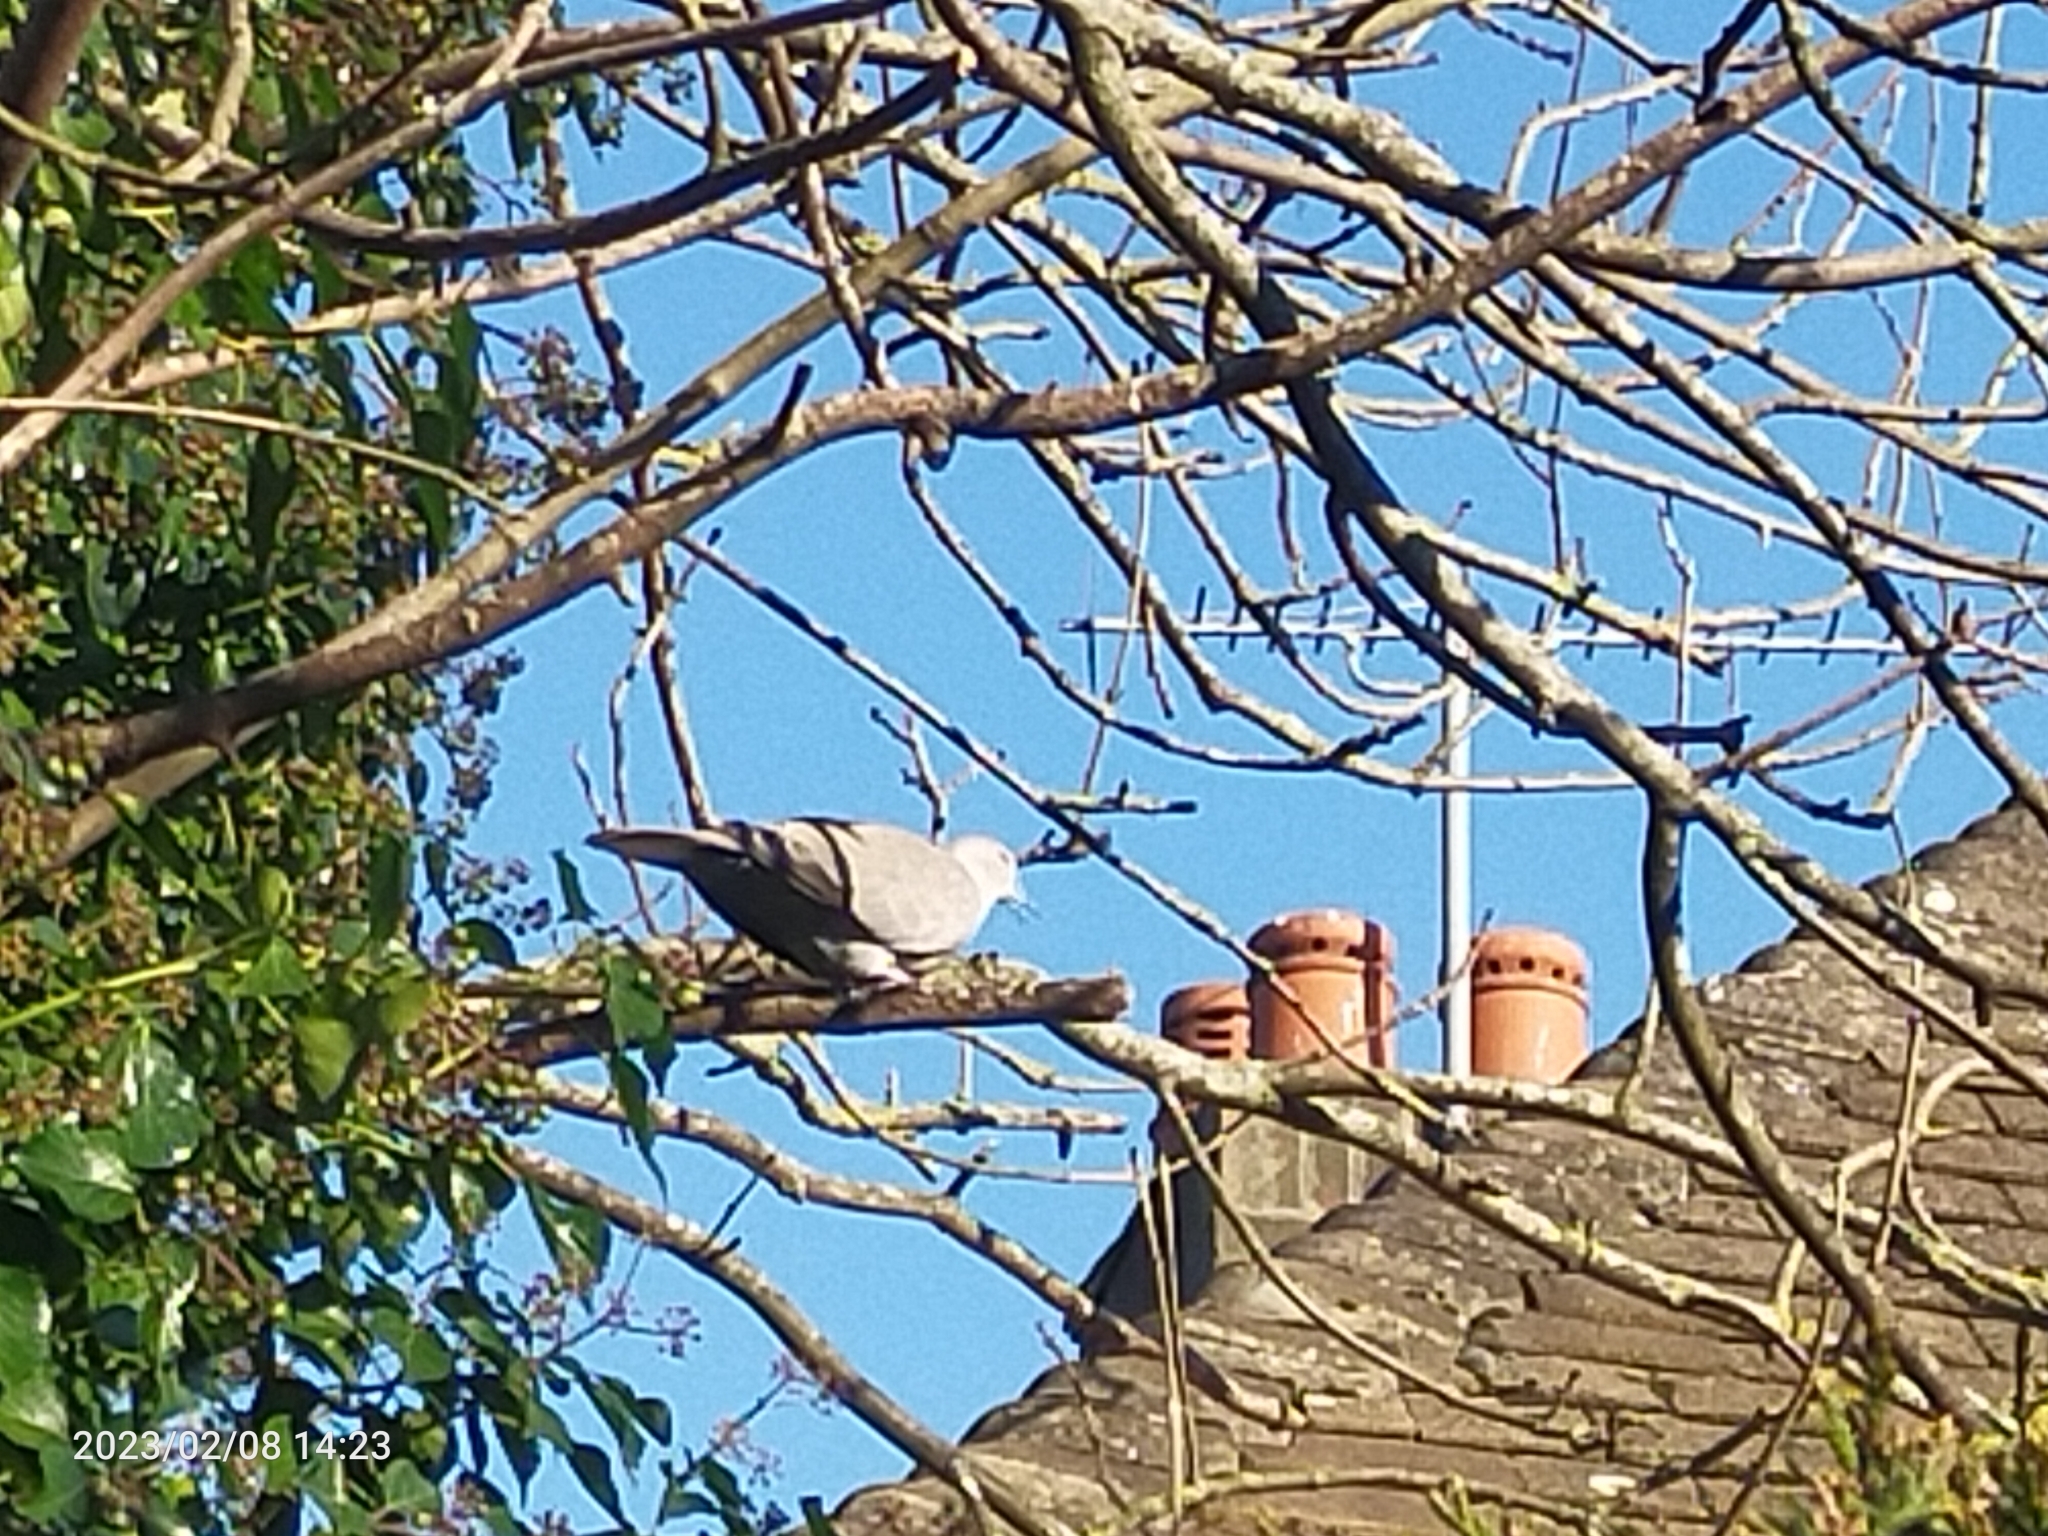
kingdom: Animalia
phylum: Chordata
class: Aves
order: Columbiformes
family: Columbidae
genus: Streptopelia
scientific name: Streptopelia decaocto
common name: Eurasian collared dove
